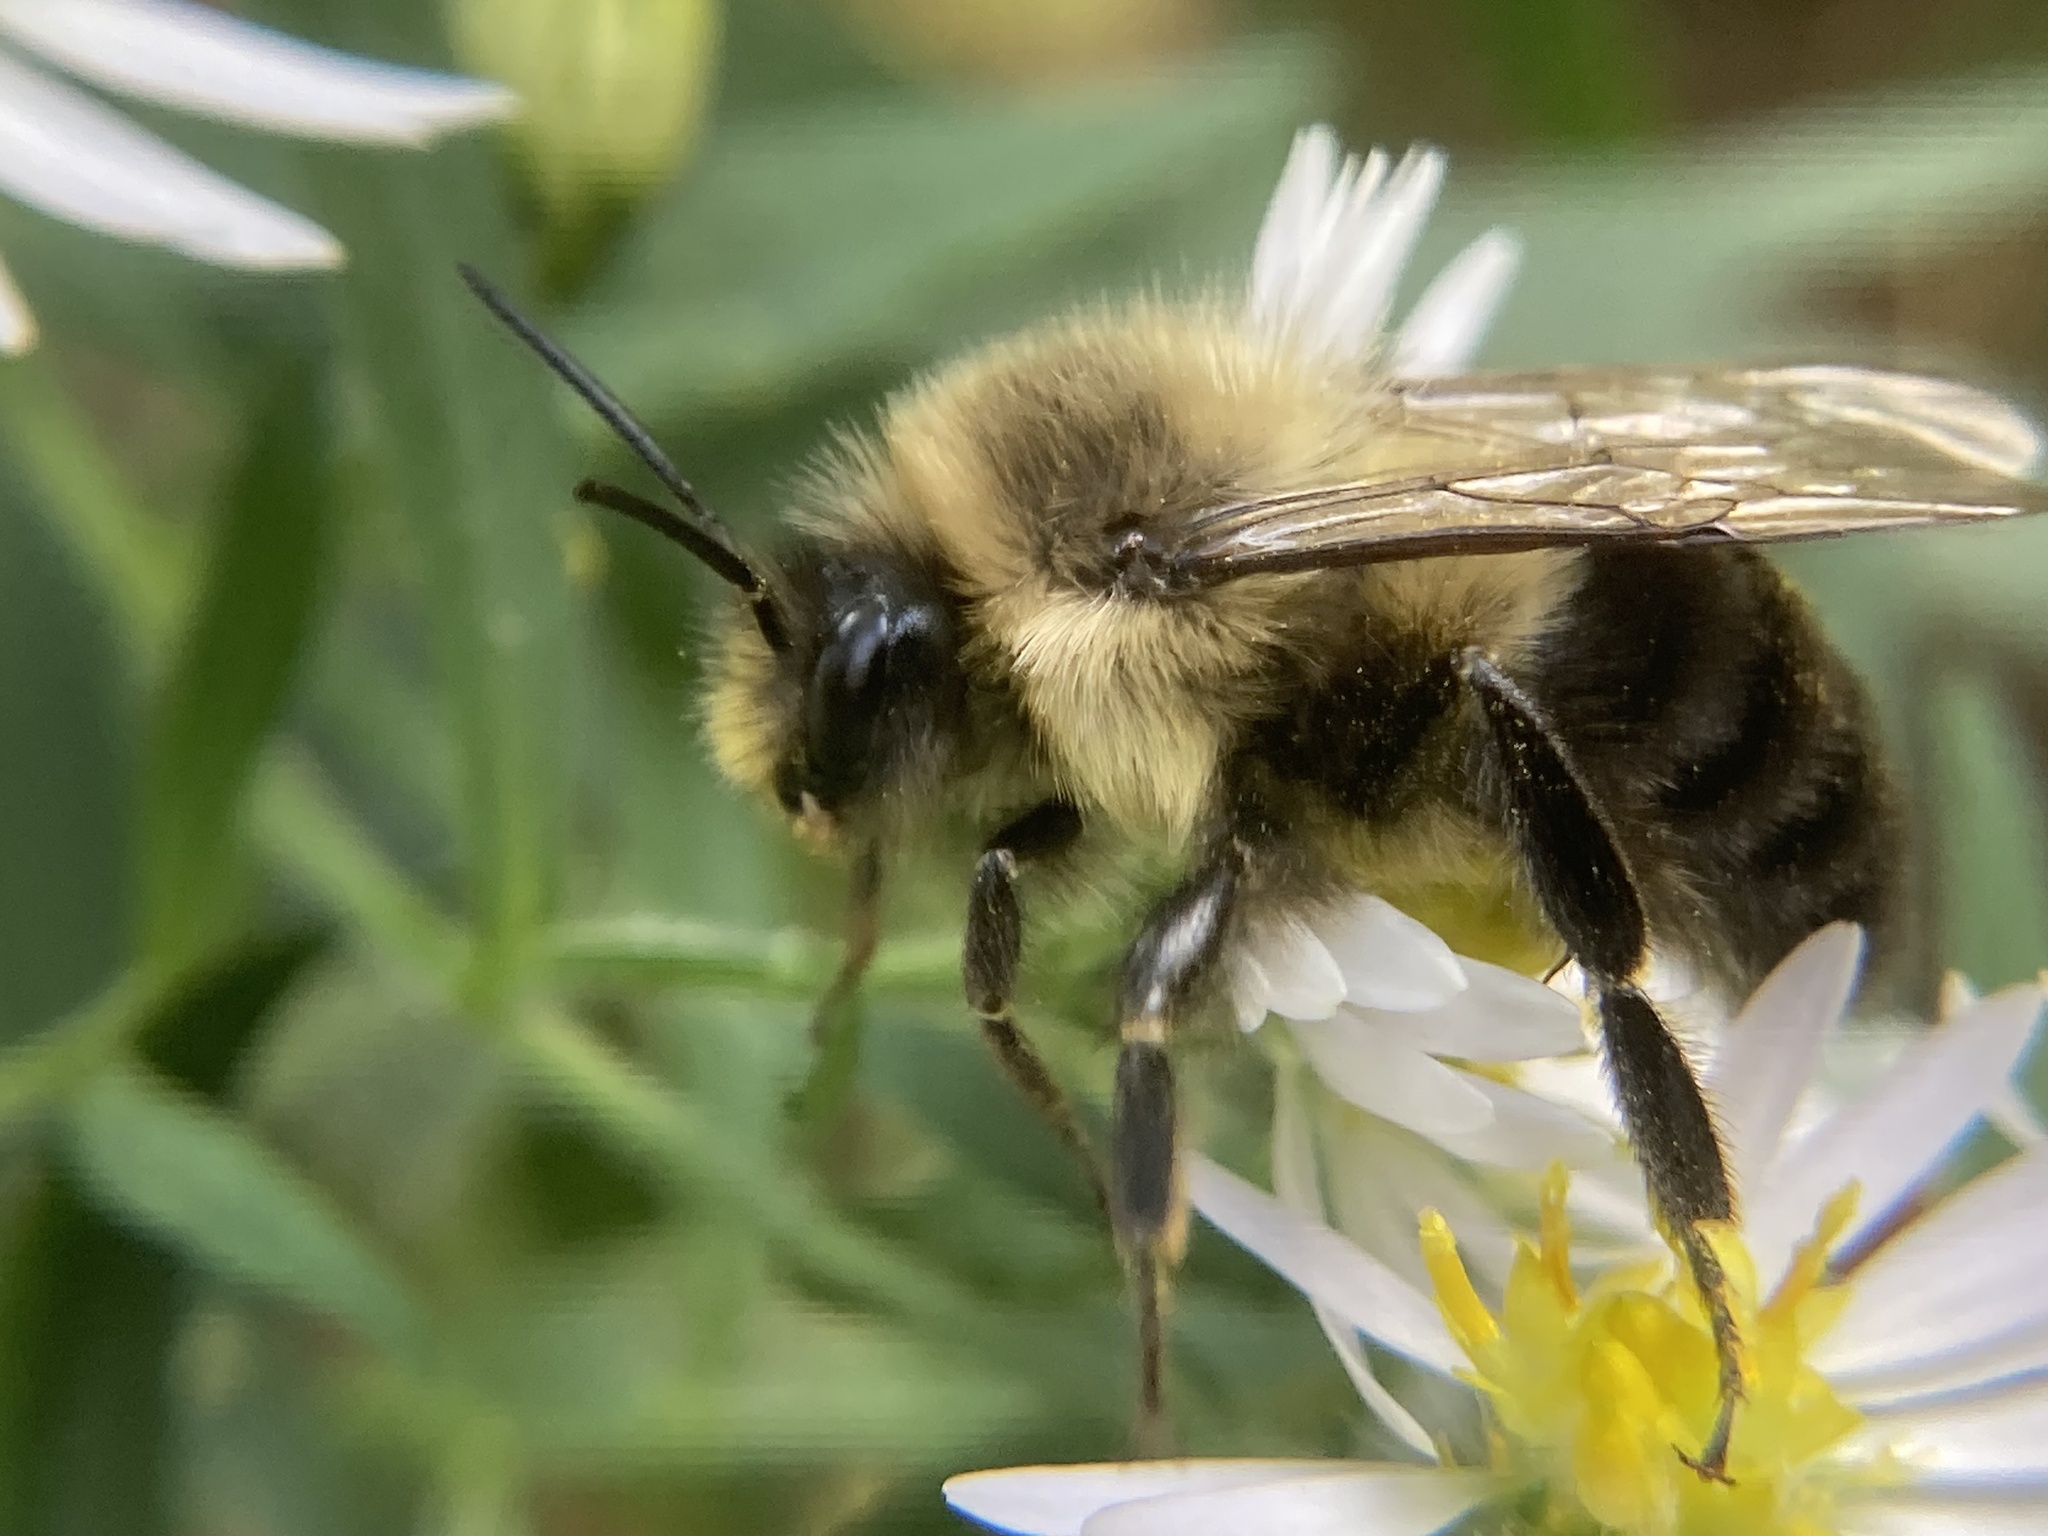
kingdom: Animalia
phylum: Arthropoda
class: Insecta
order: Hymenoptera
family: Apidae
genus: Bombus
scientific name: Bombus impatiens
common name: Common eastern bumble bee
